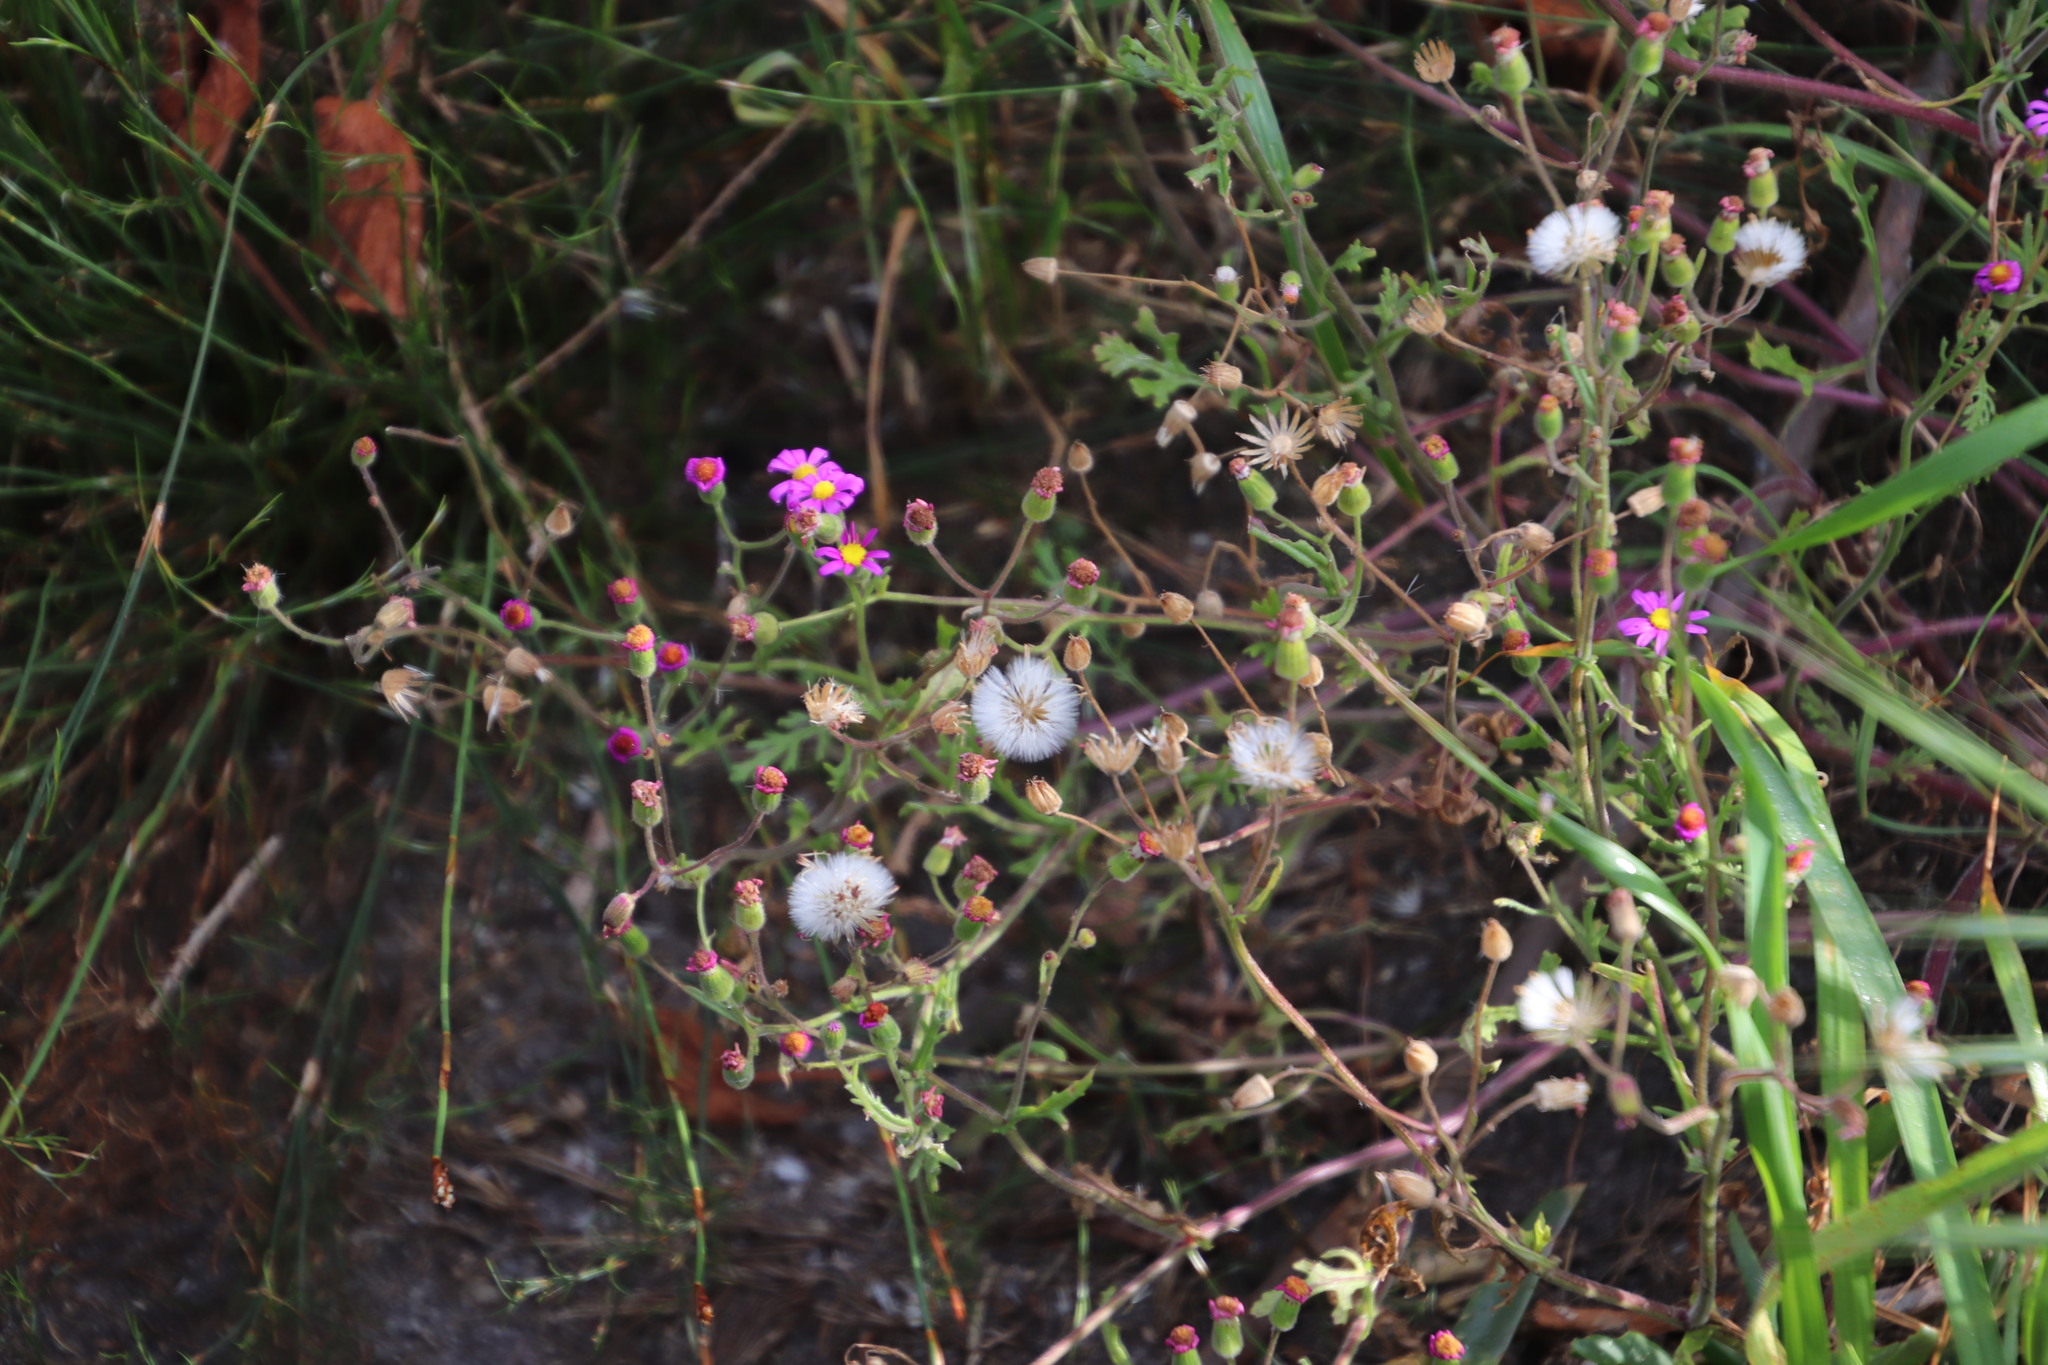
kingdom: Plantae
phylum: Tracheophyta
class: Magnoliopsida
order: Asterales
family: Asteraceae
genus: Senecio
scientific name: Senecio arenarius
